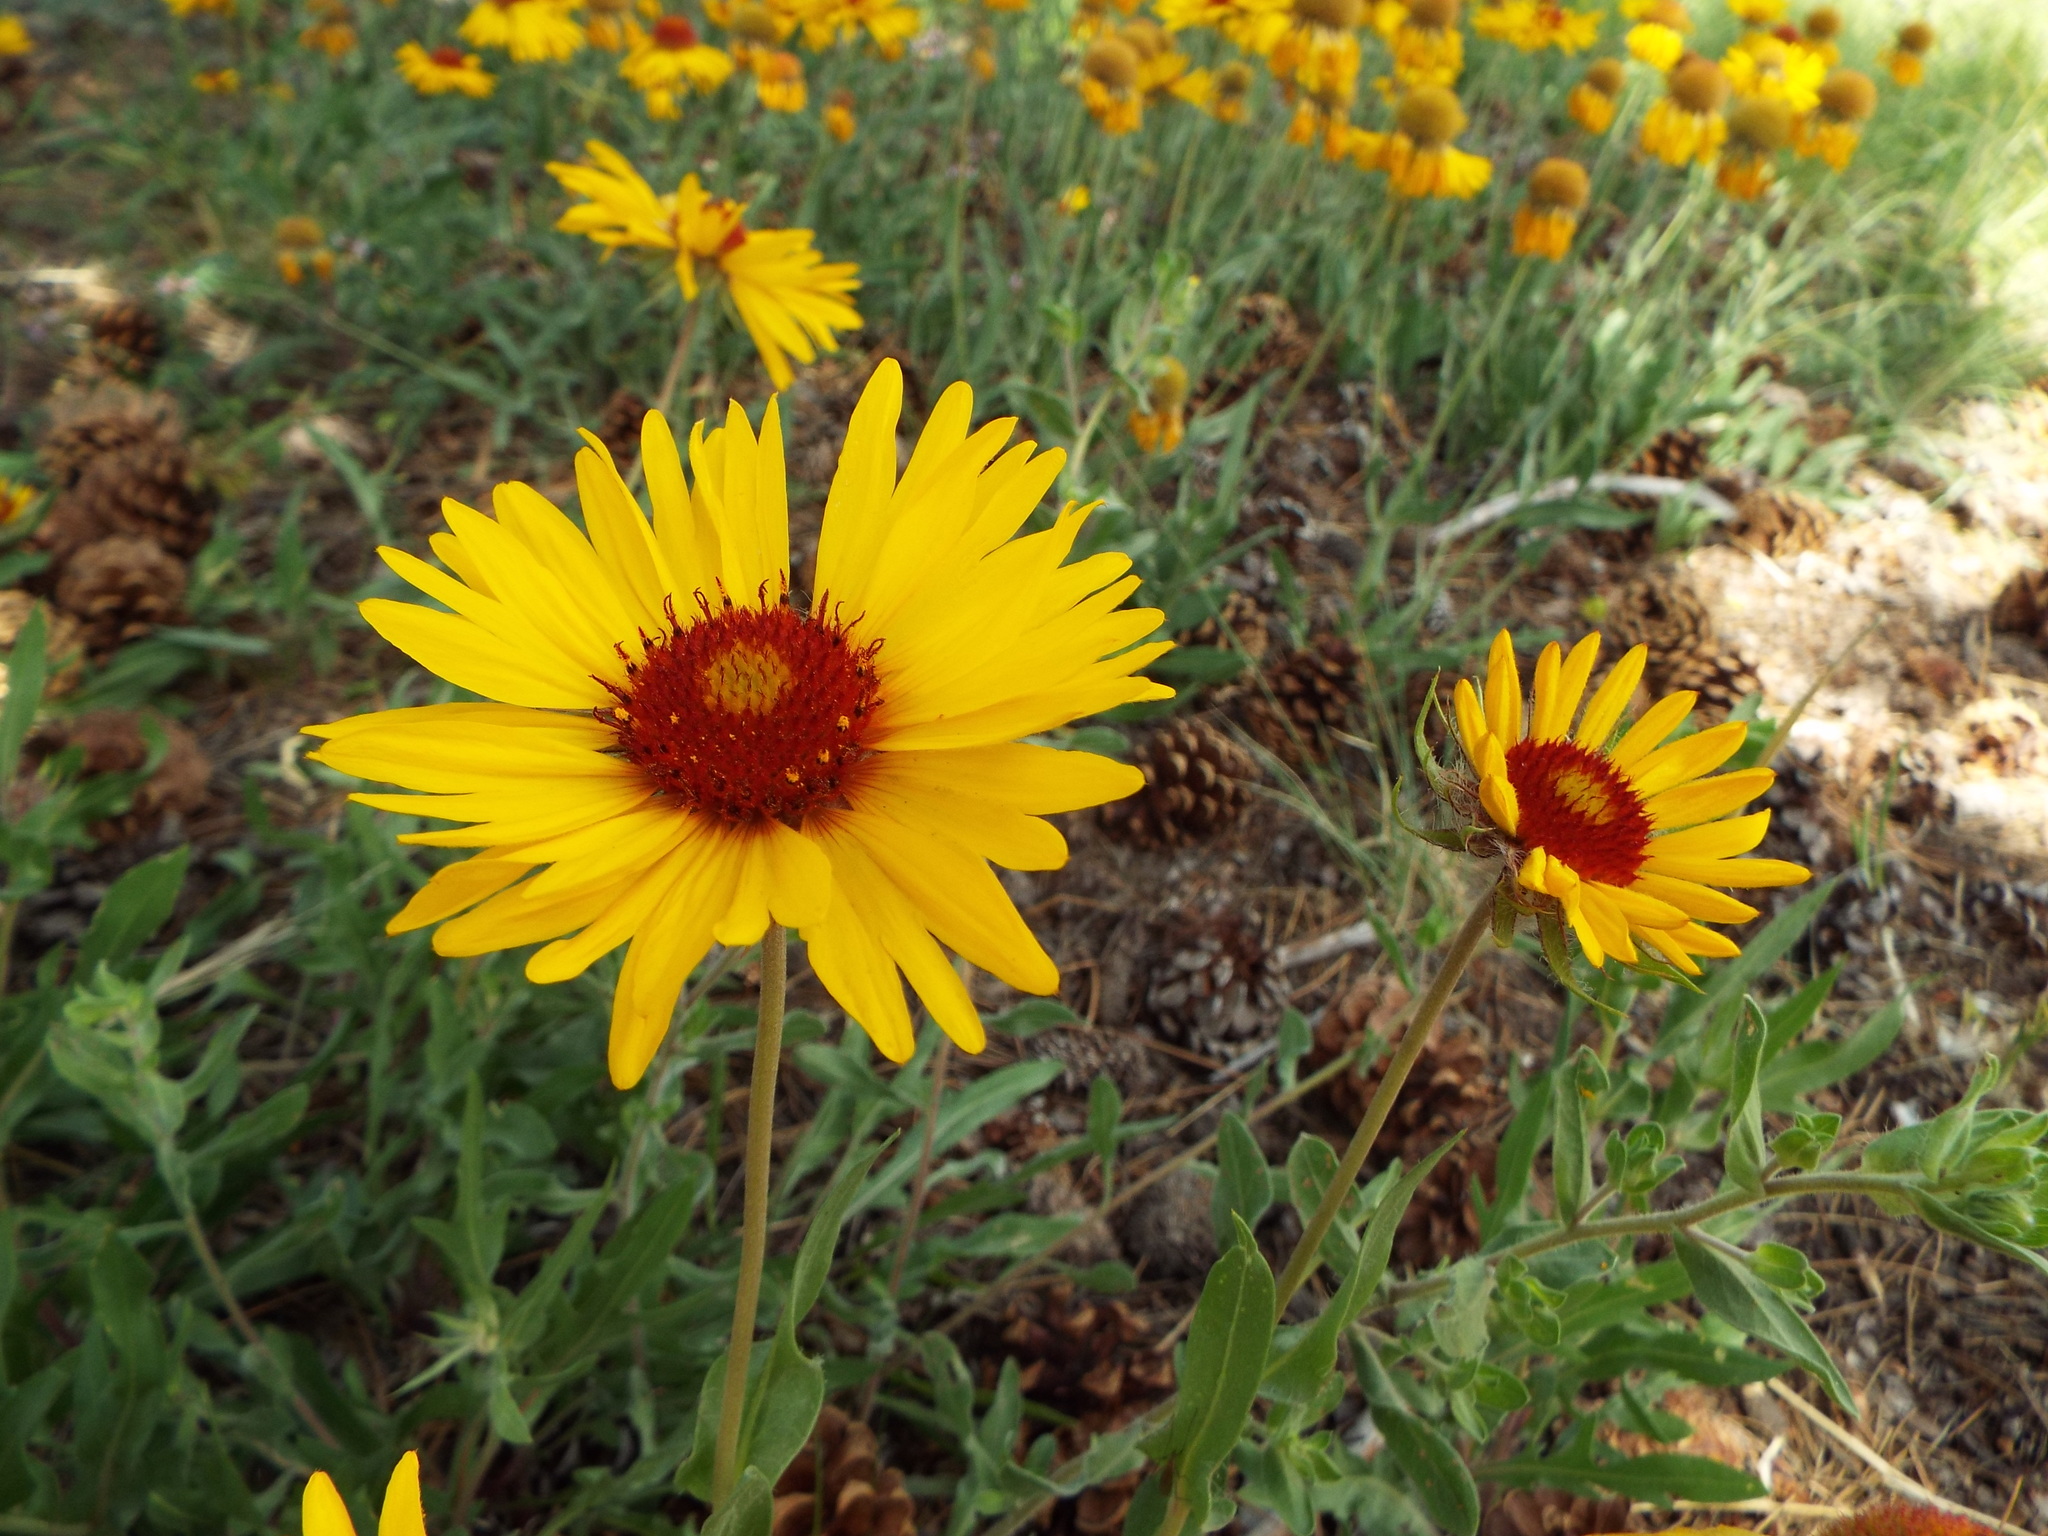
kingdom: Plantae
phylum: Tracheophyta
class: Magnoliopsida
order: Asterales
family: Asteraceae
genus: Gaillardia
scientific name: Gaillardia aristata
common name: Blanket-flower
